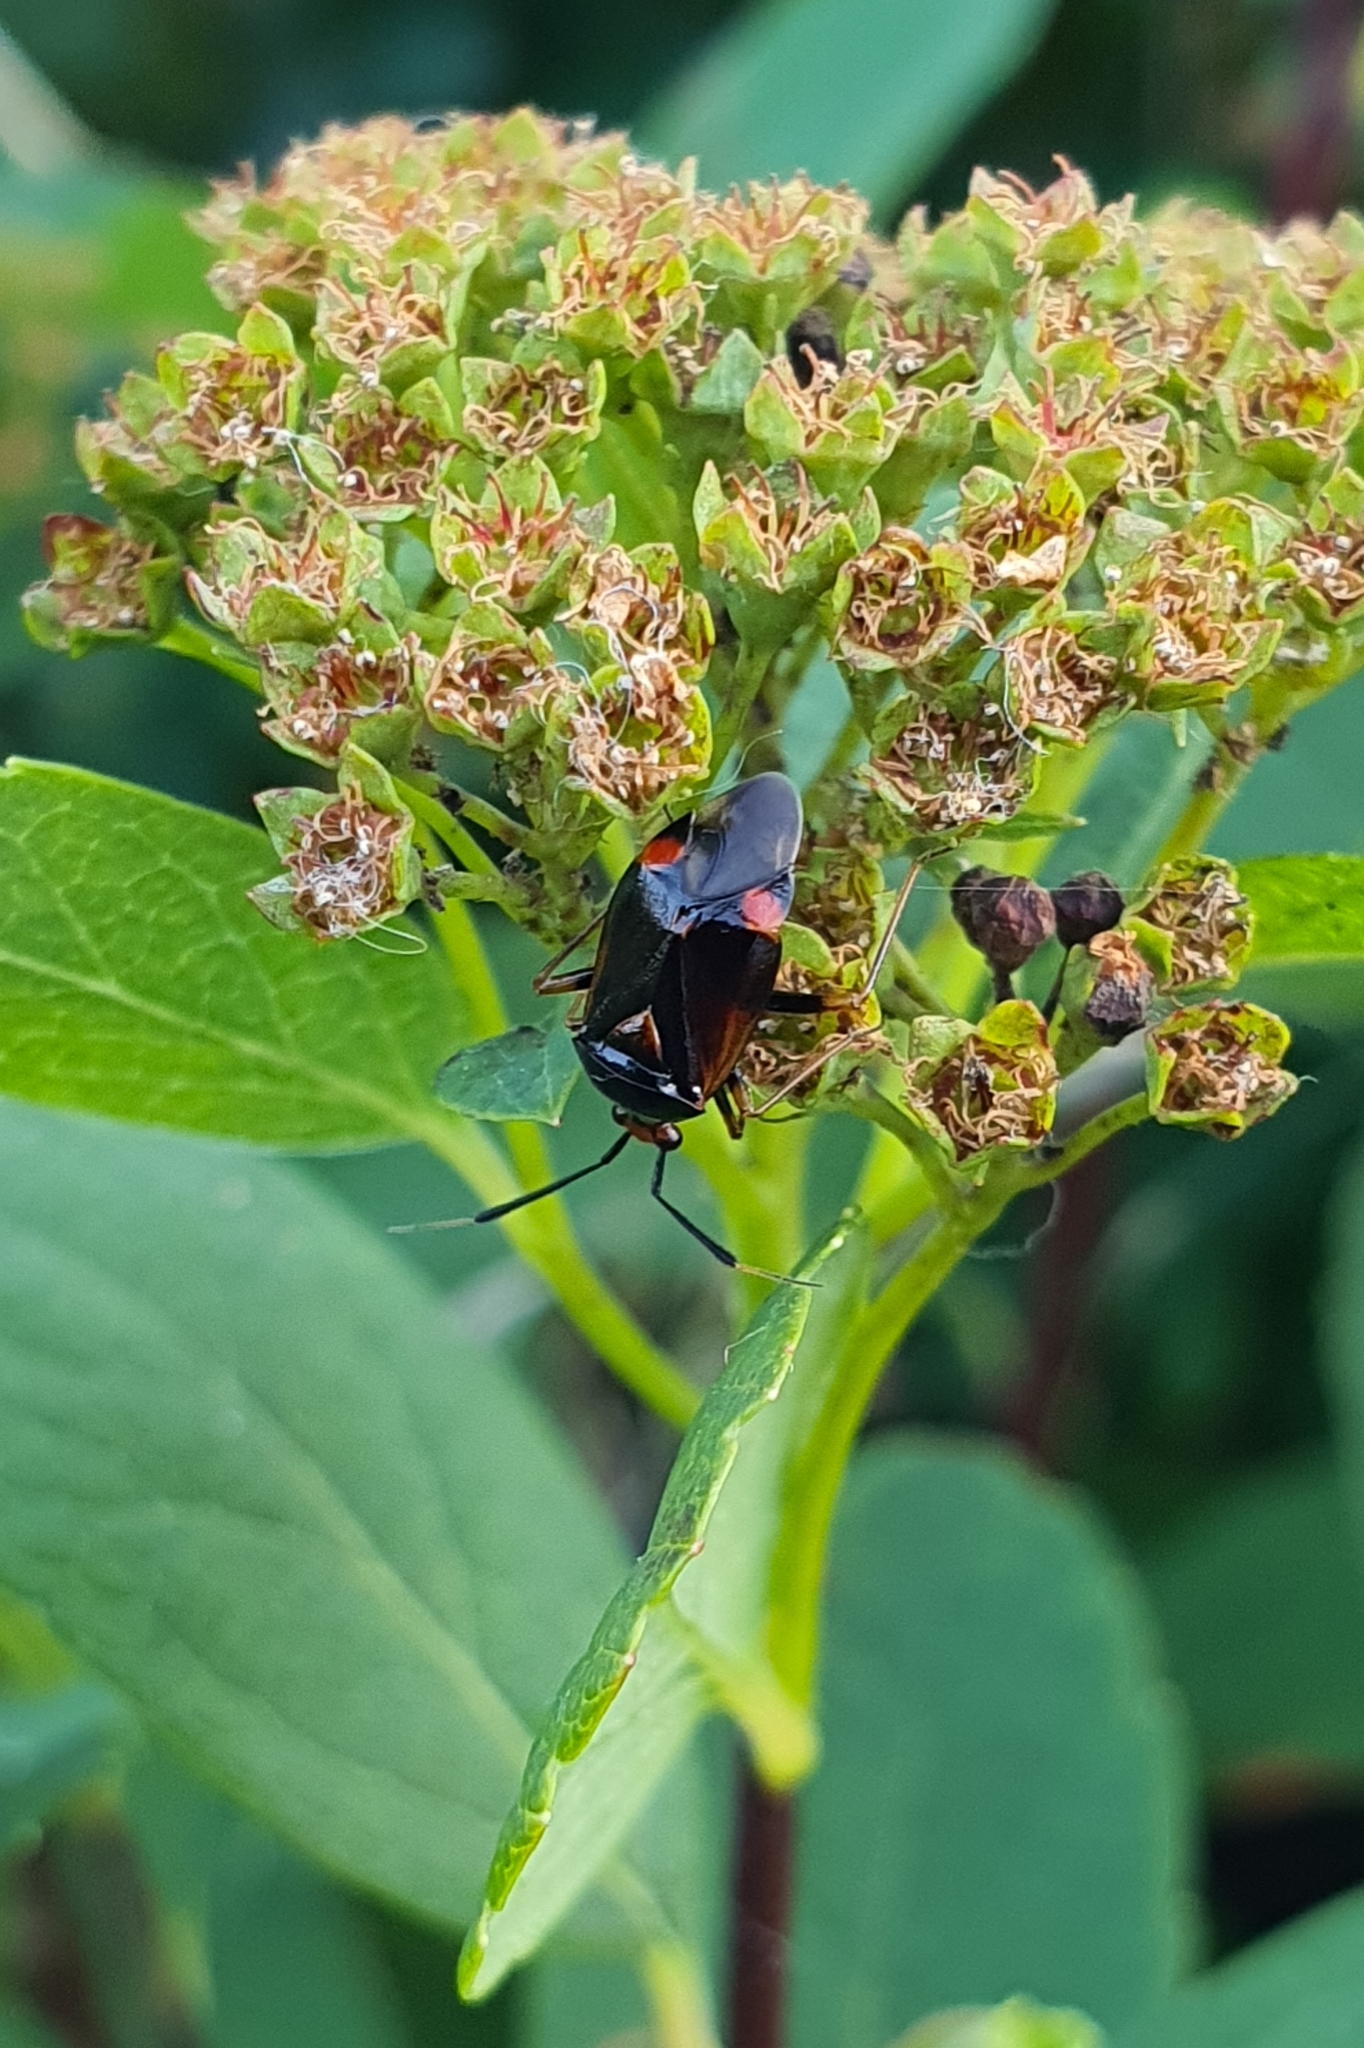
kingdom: Animalia
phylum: Arthropoda
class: Insecta
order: Hemiptera
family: Miridae
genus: Deraeocoris
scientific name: Deraeocoris ruber
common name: Plant bug
